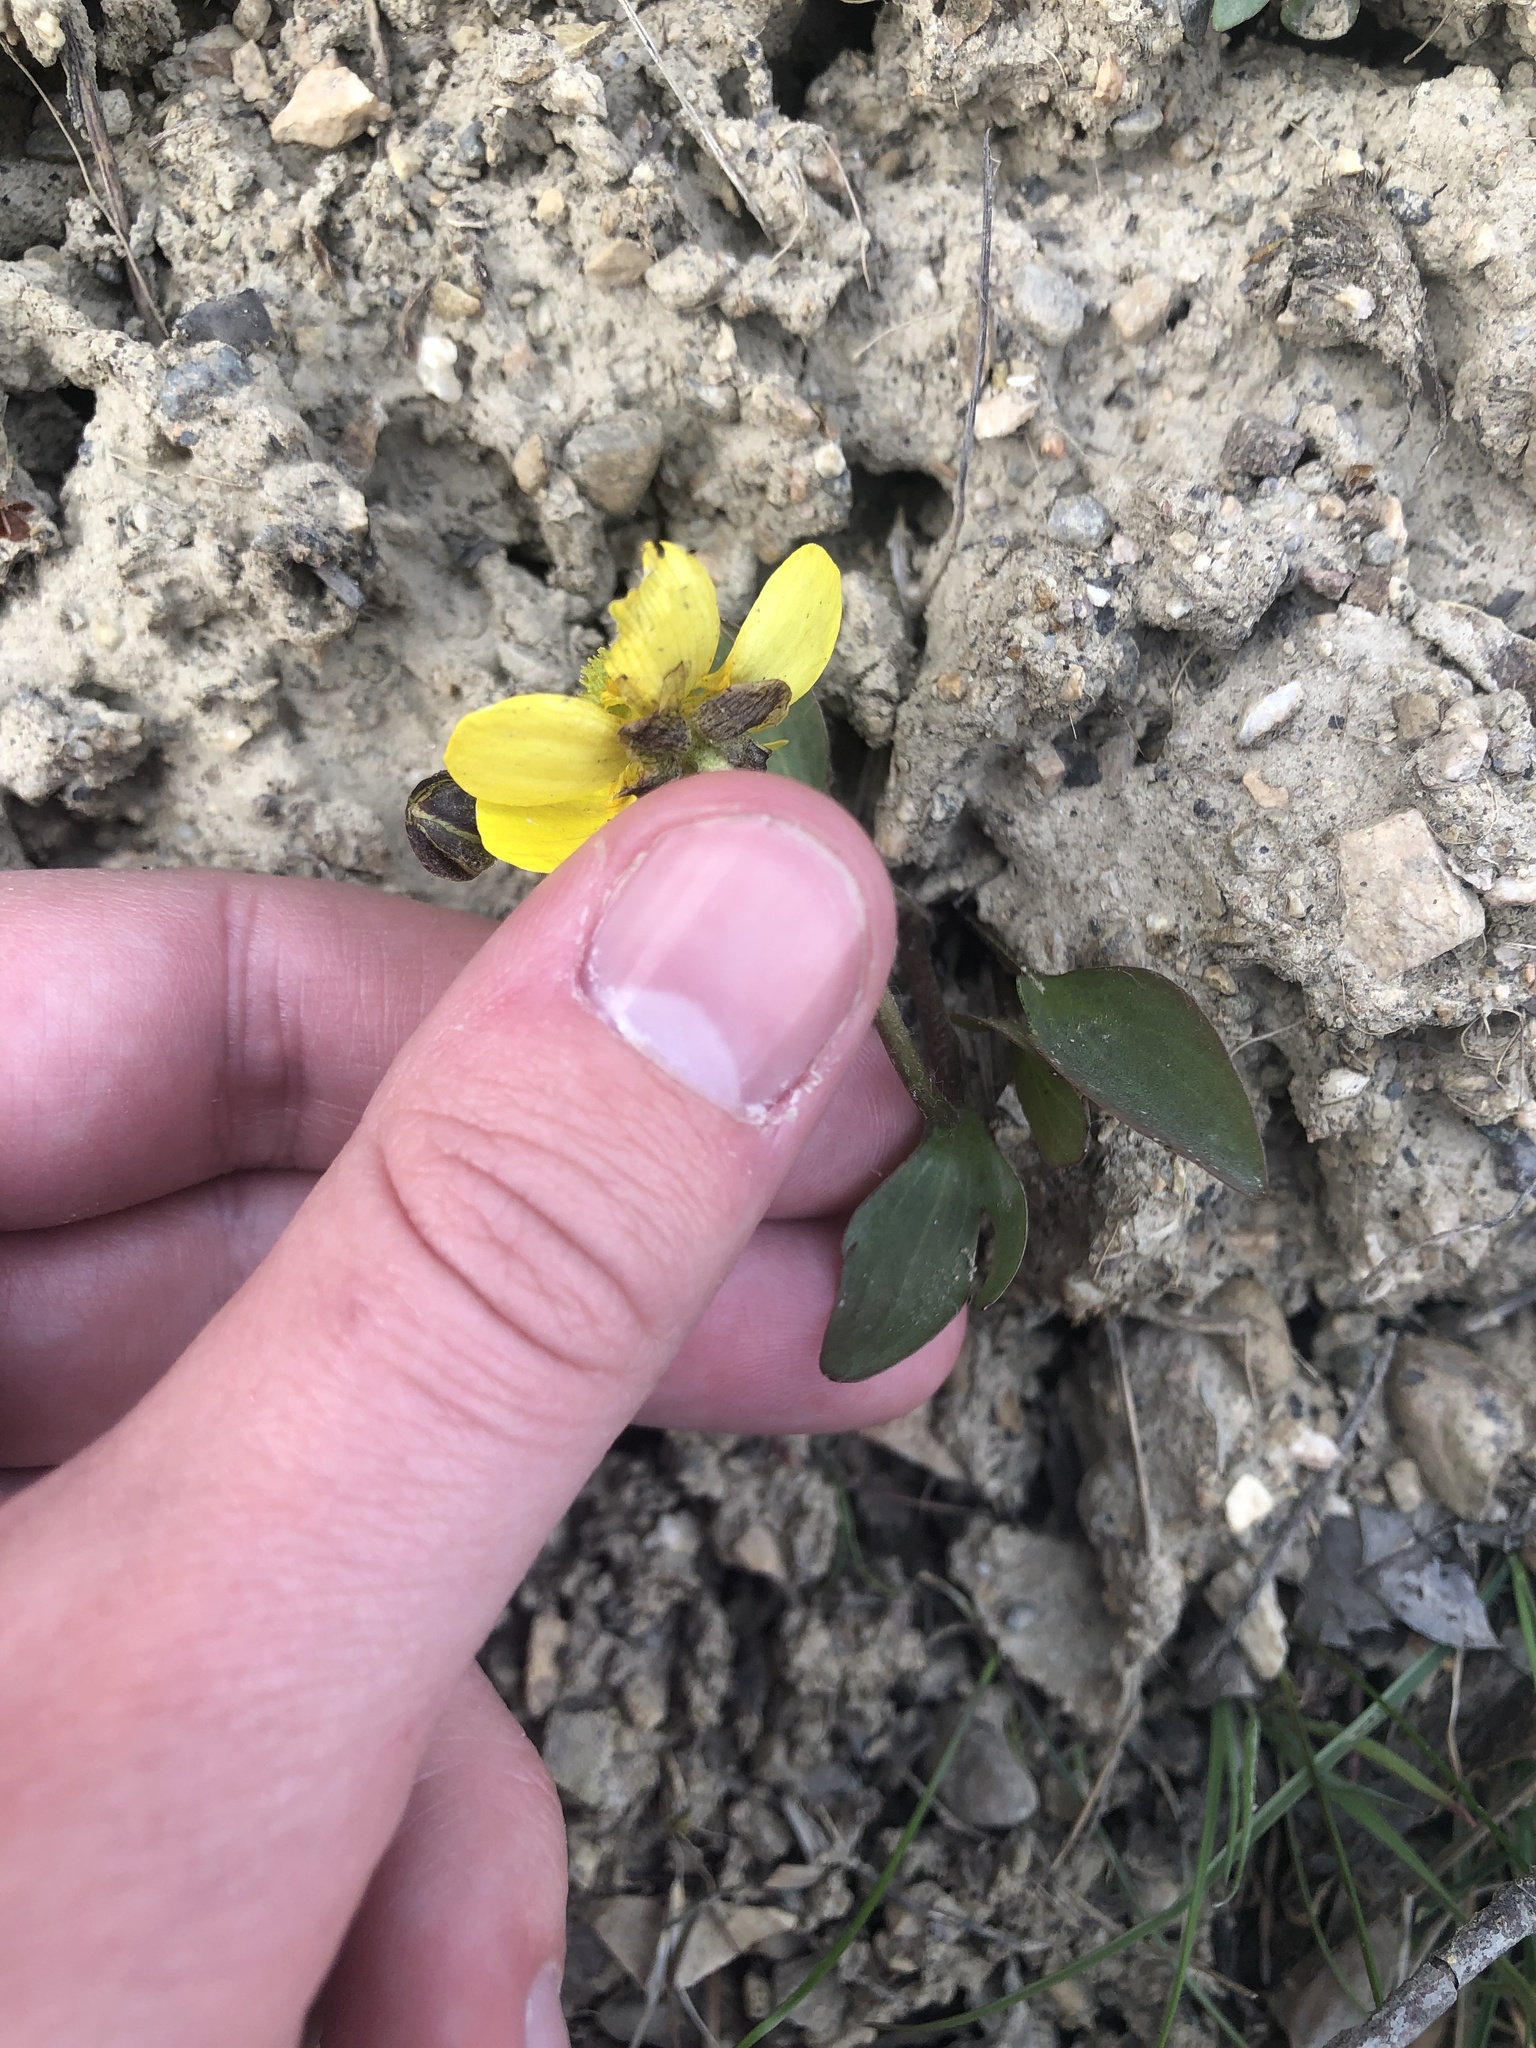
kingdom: Plantae
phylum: Tracheophyta
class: Magnoliopsida
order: Ranunculales
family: Ranunculaceae
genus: Ranunculus
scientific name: Ranunculus glaberrimus
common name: Sagebrush buttercup
